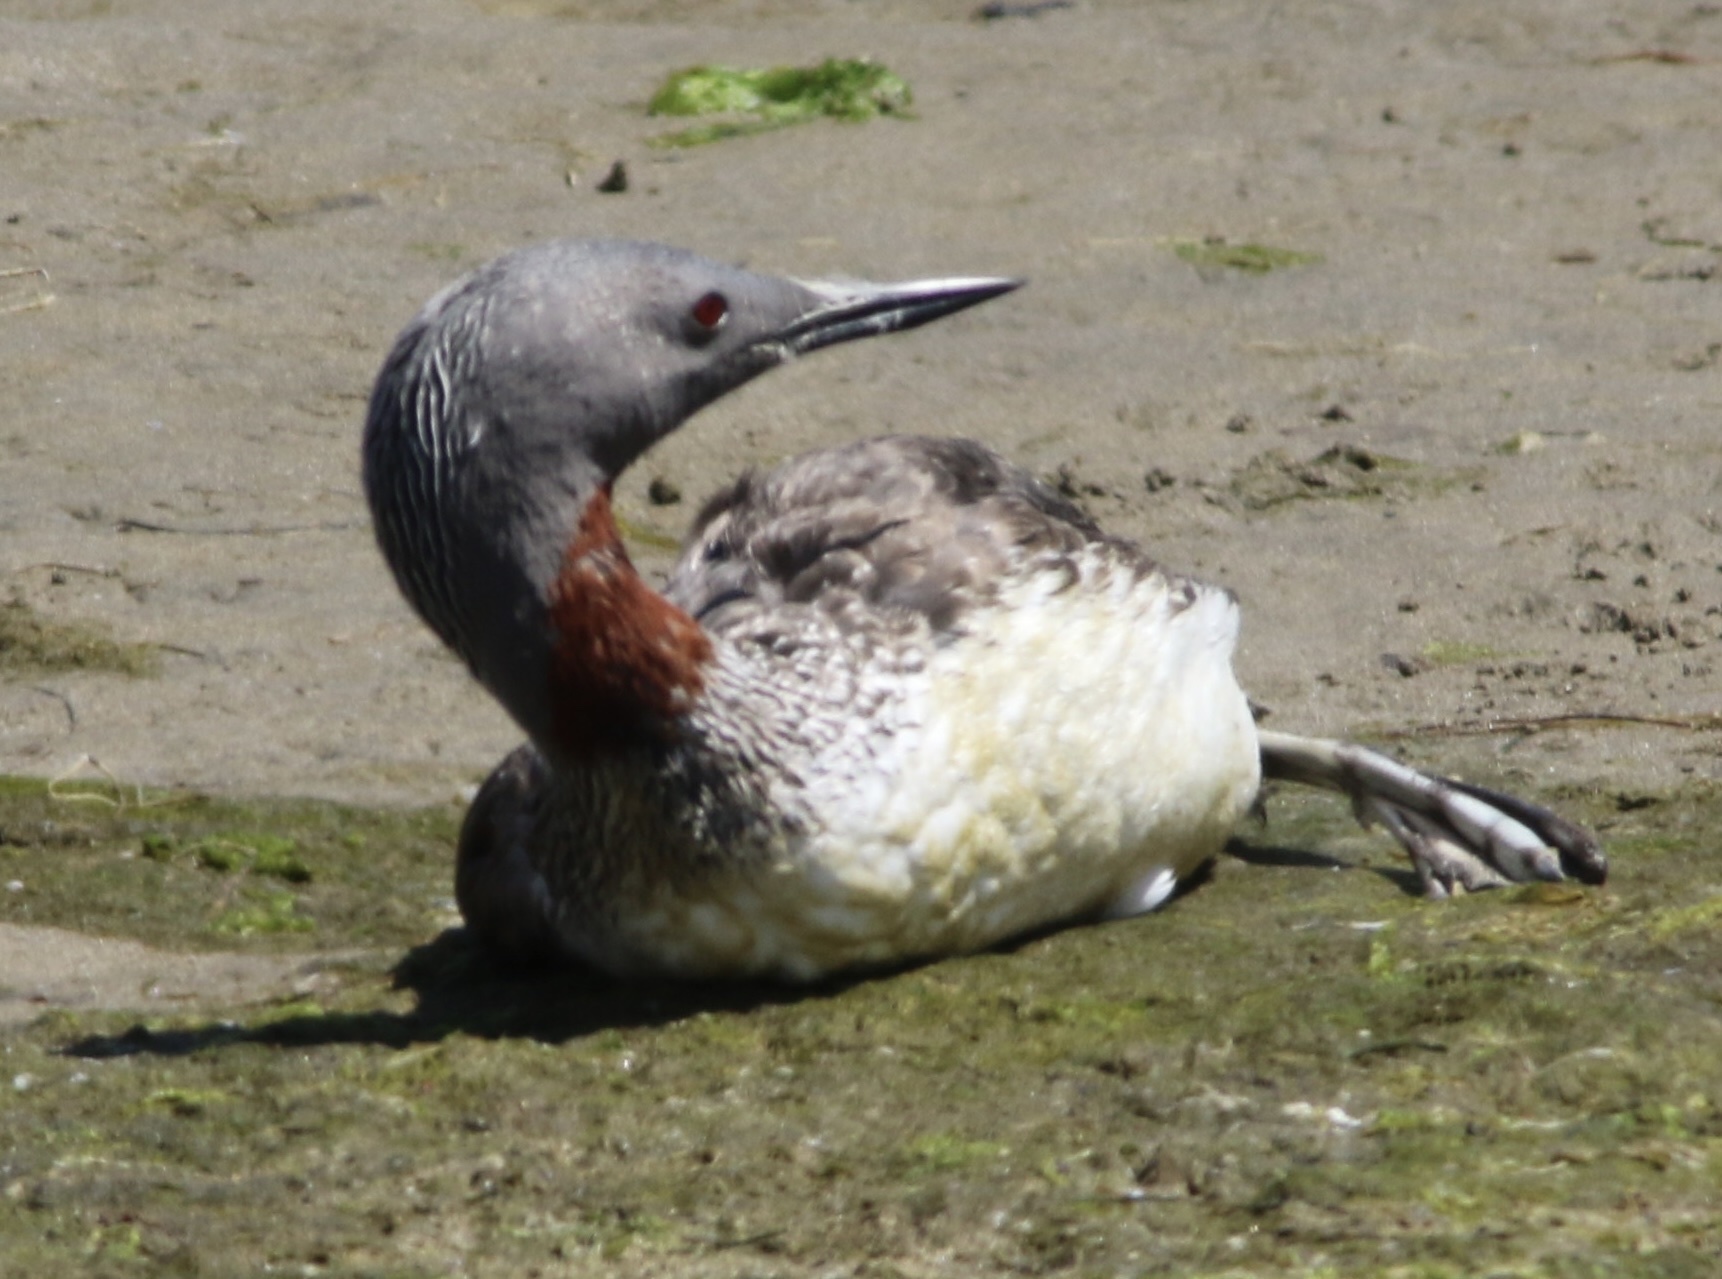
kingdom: Animalia
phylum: Chordata
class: Aves
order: Gaviiformes
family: Gaviidae
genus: Gavia
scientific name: Gavia stellata
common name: Red-throated loon
